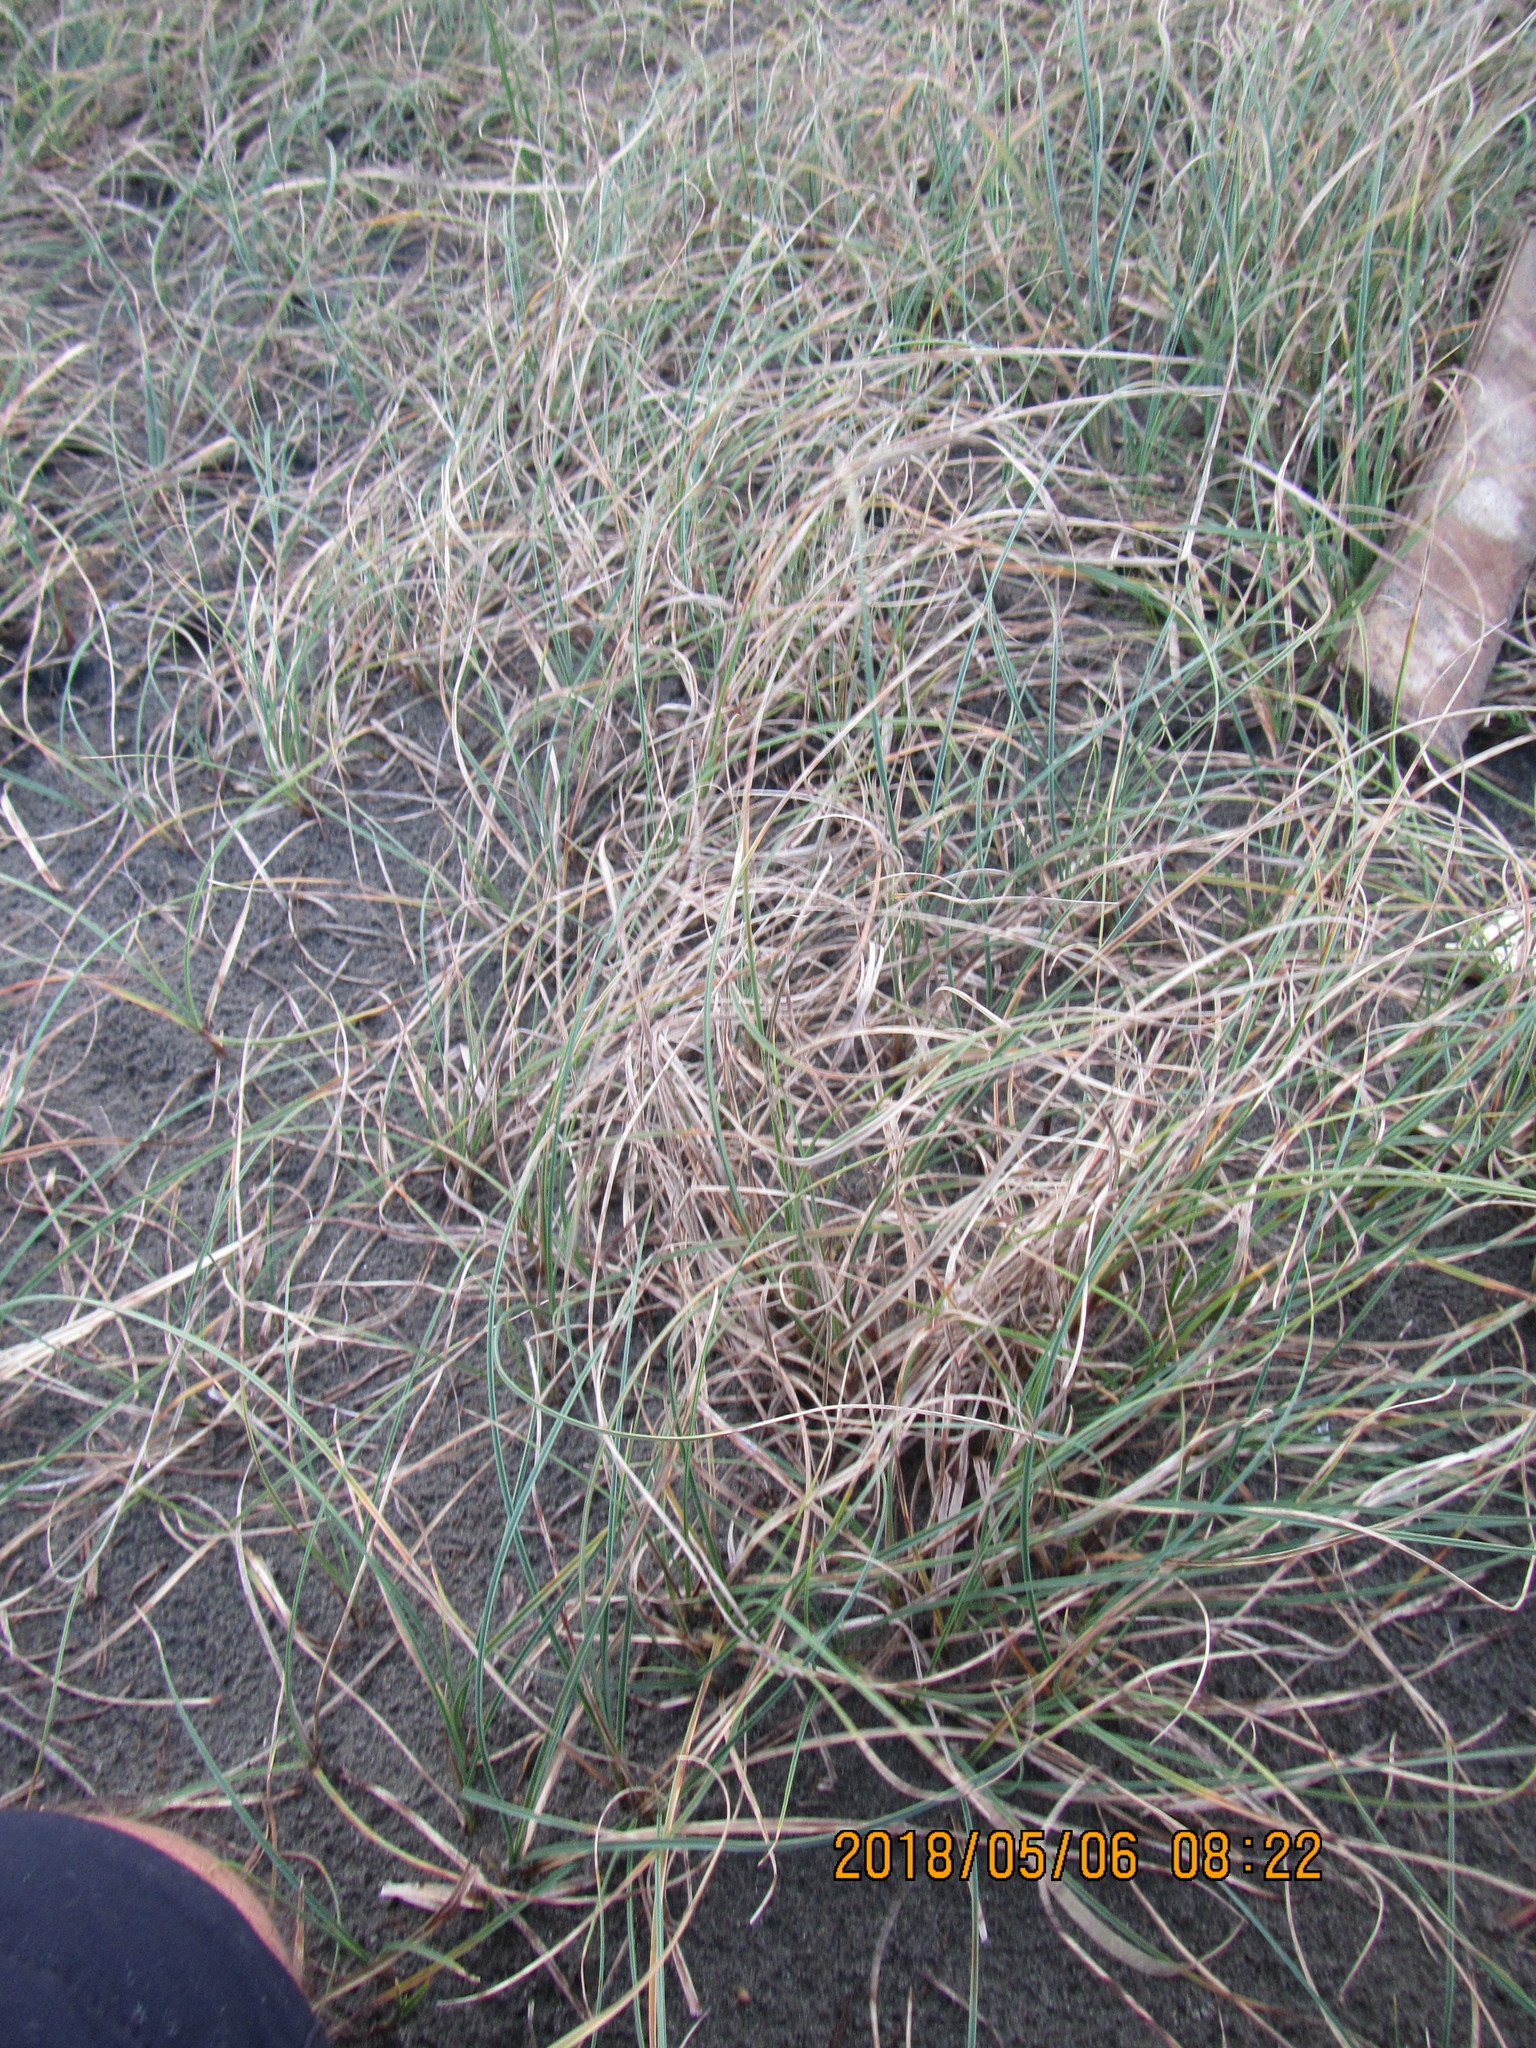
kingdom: Plantae
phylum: Tracheophyta
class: Liliopsida
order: Poales
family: Cyperaceae
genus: Carex
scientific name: Carex pumila
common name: Dwarf sedge
